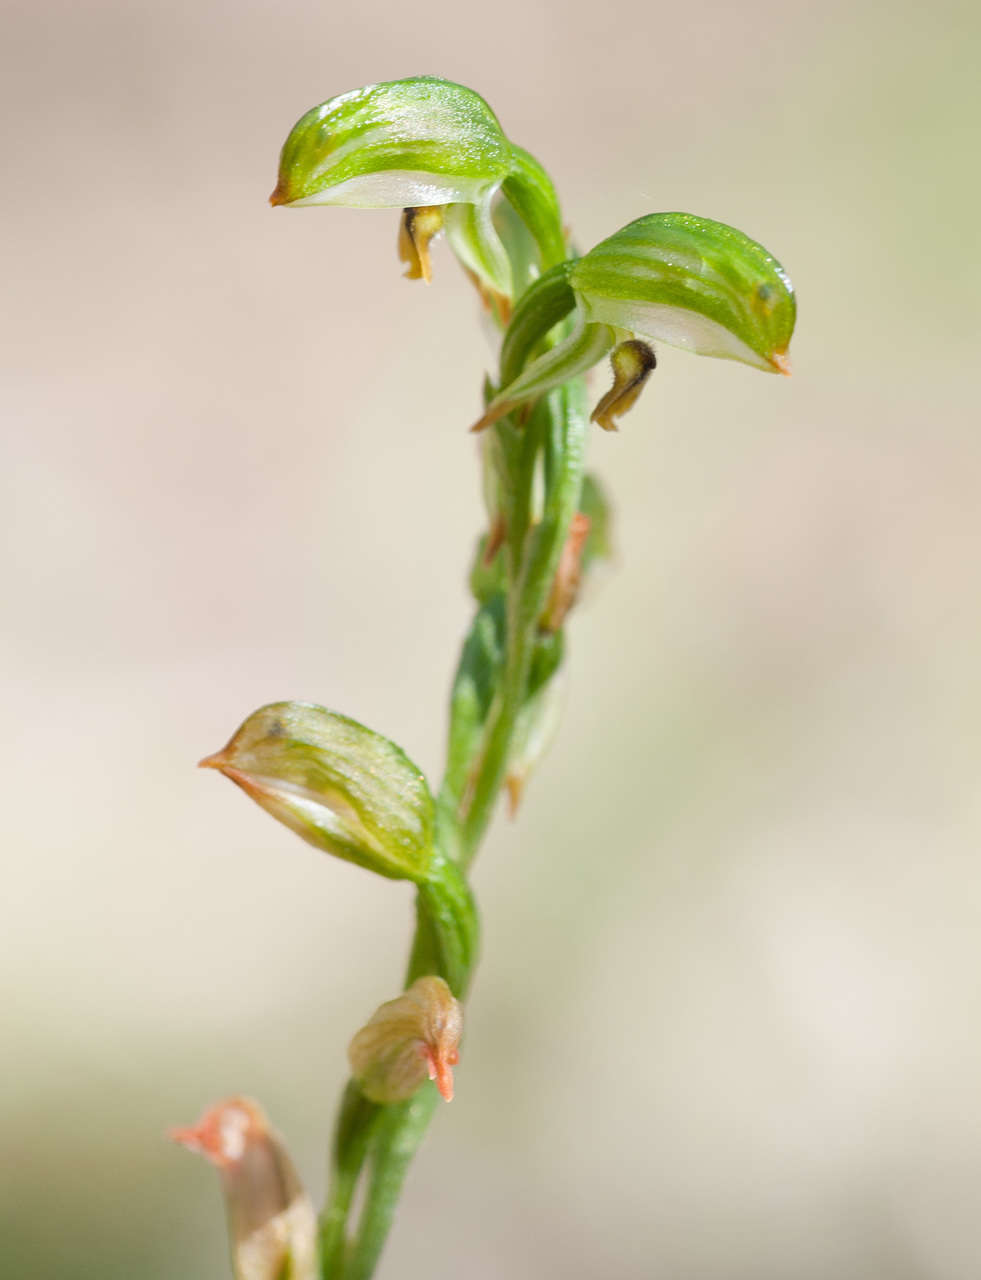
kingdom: Plantae
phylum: Tracheophyta
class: Liliopsida
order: Asparagales
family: Orchidaceae
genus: Pterostylis
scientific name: Pterostylis melagramma
